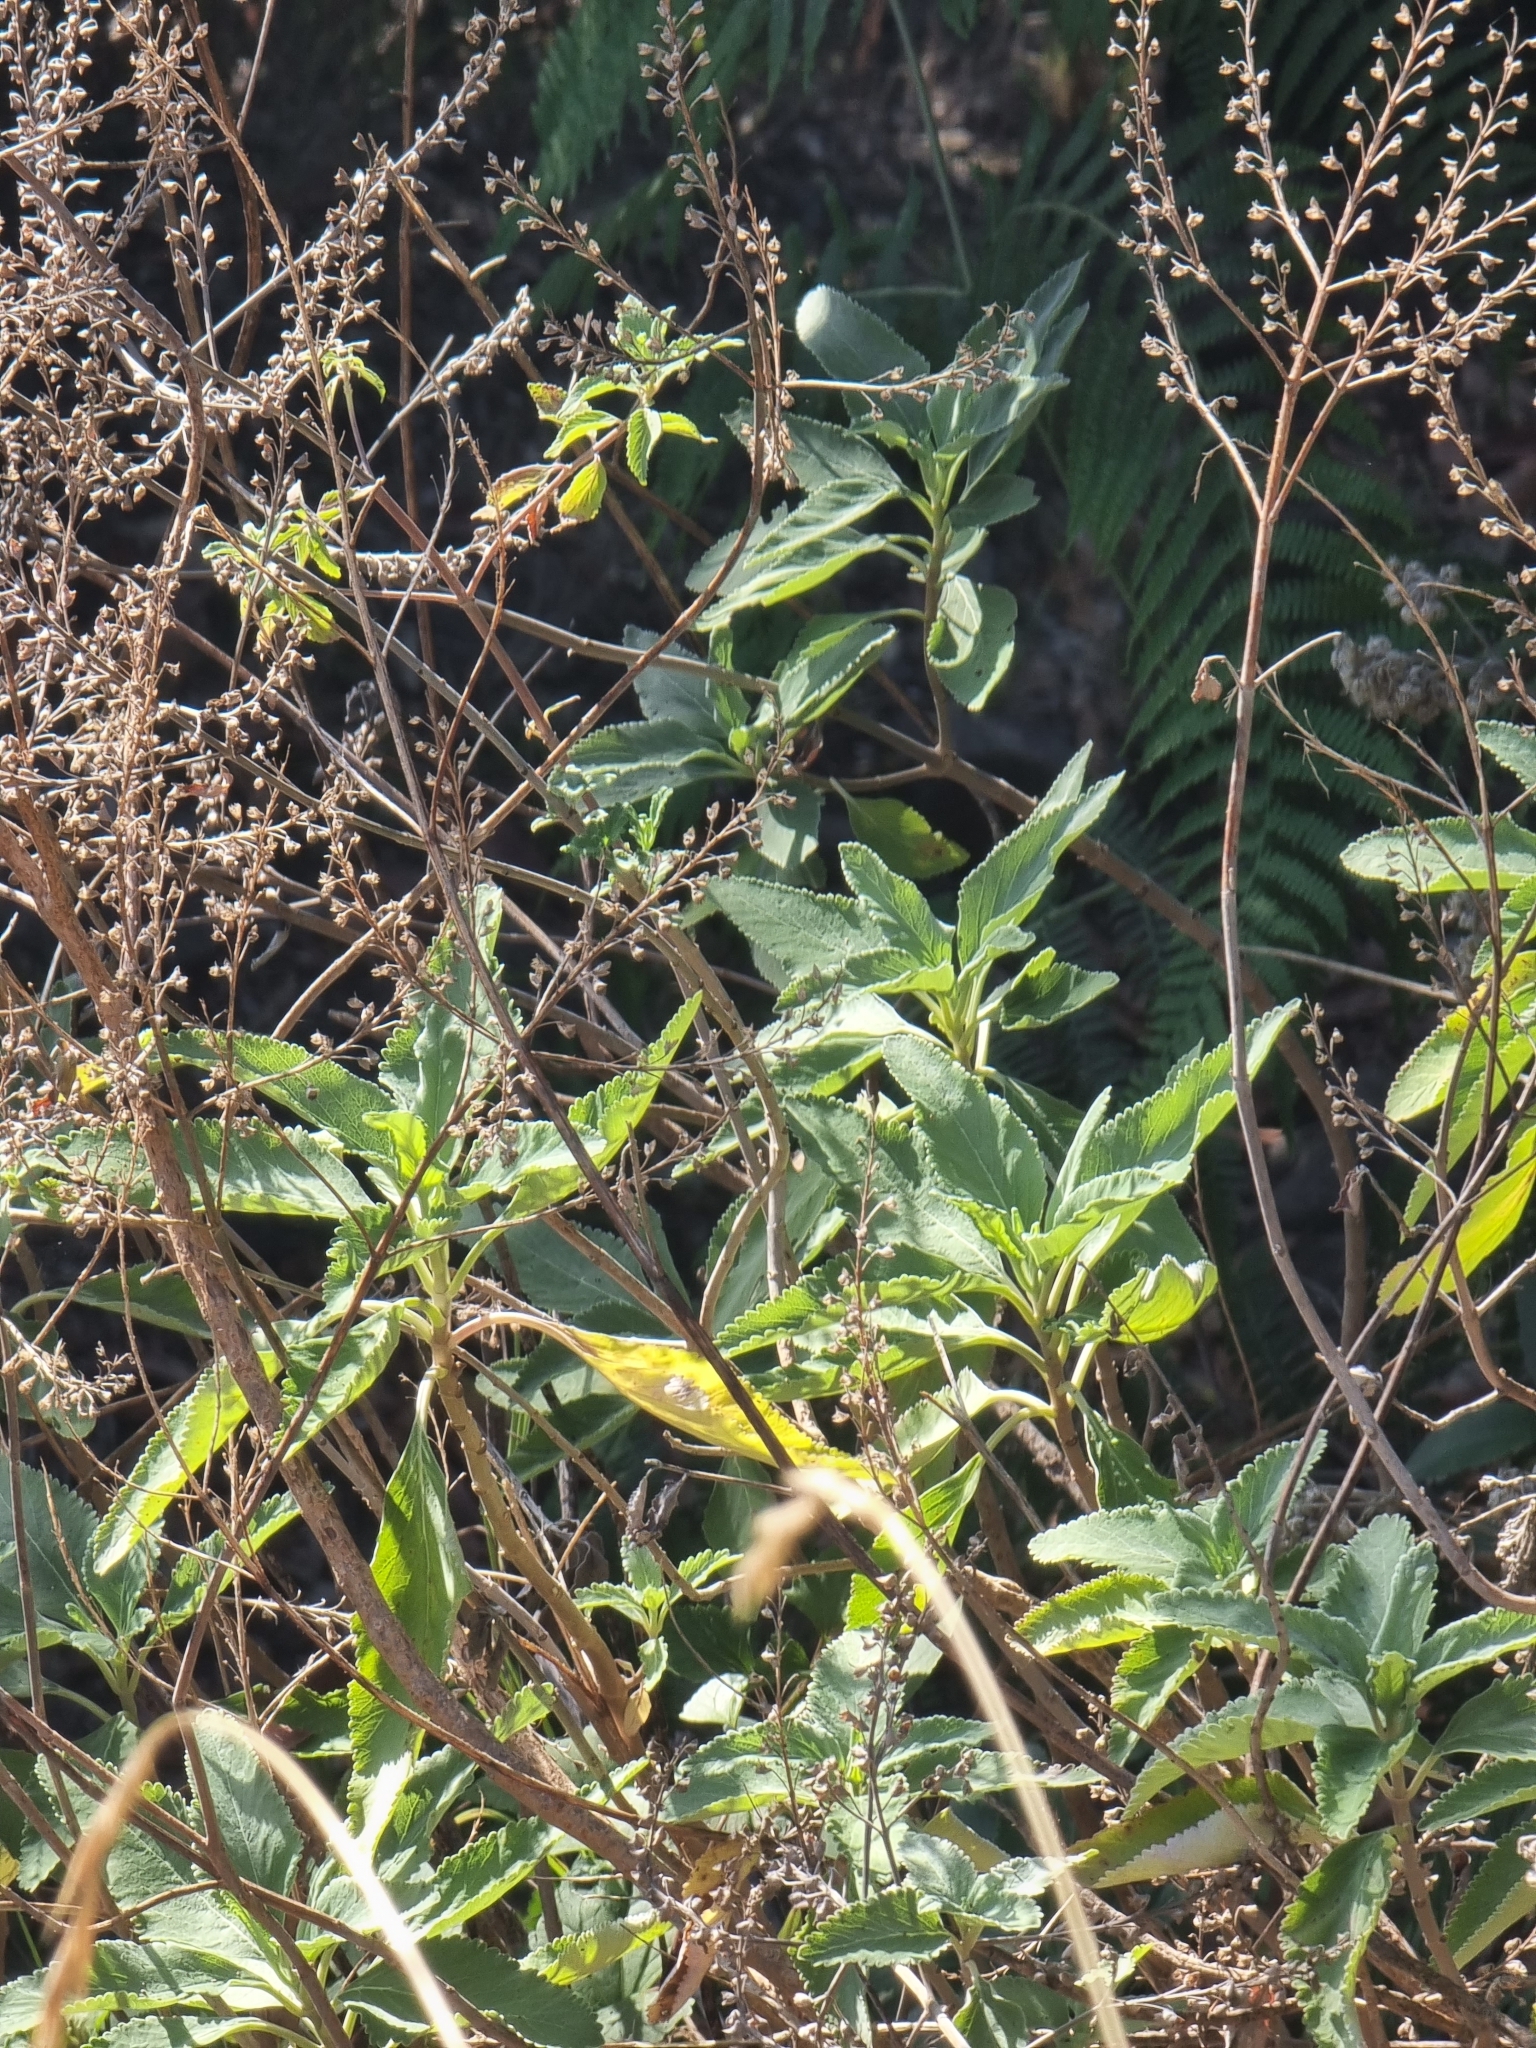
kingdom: Plantae
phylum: Tracheophyta
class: Magnoliopsida
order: Lamiales
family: Lamiaceae
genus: Teucrium
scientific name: Teucrium betonicum
